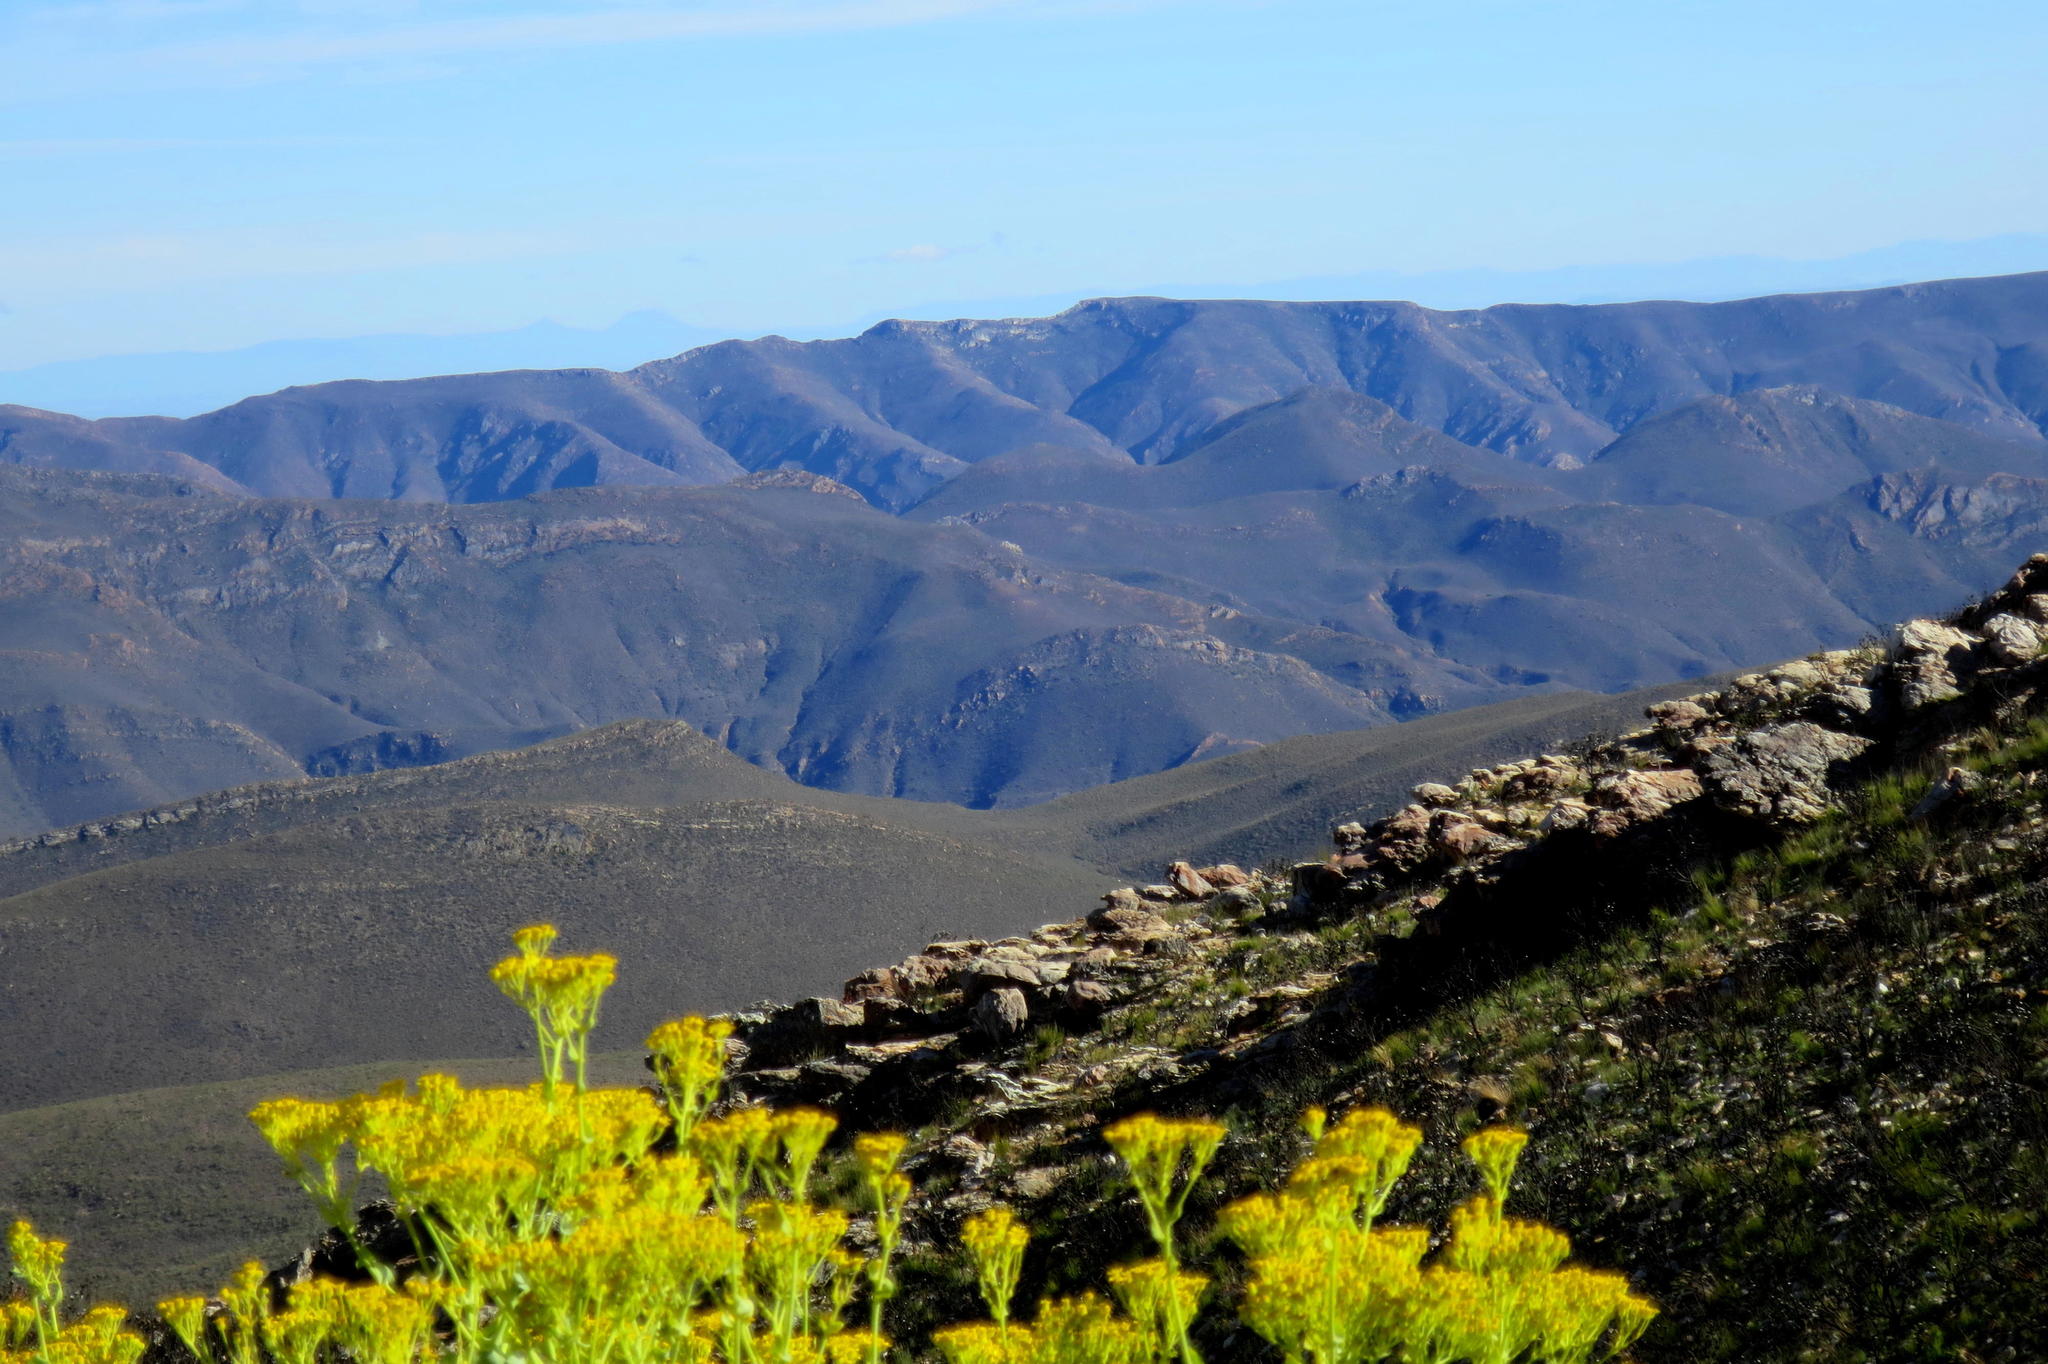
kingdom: Plantae
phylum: Tracheophyta
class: Magnoliopsida
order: Asterales
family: Asteraceae
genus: Othonna
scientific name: Othonna parviflora
